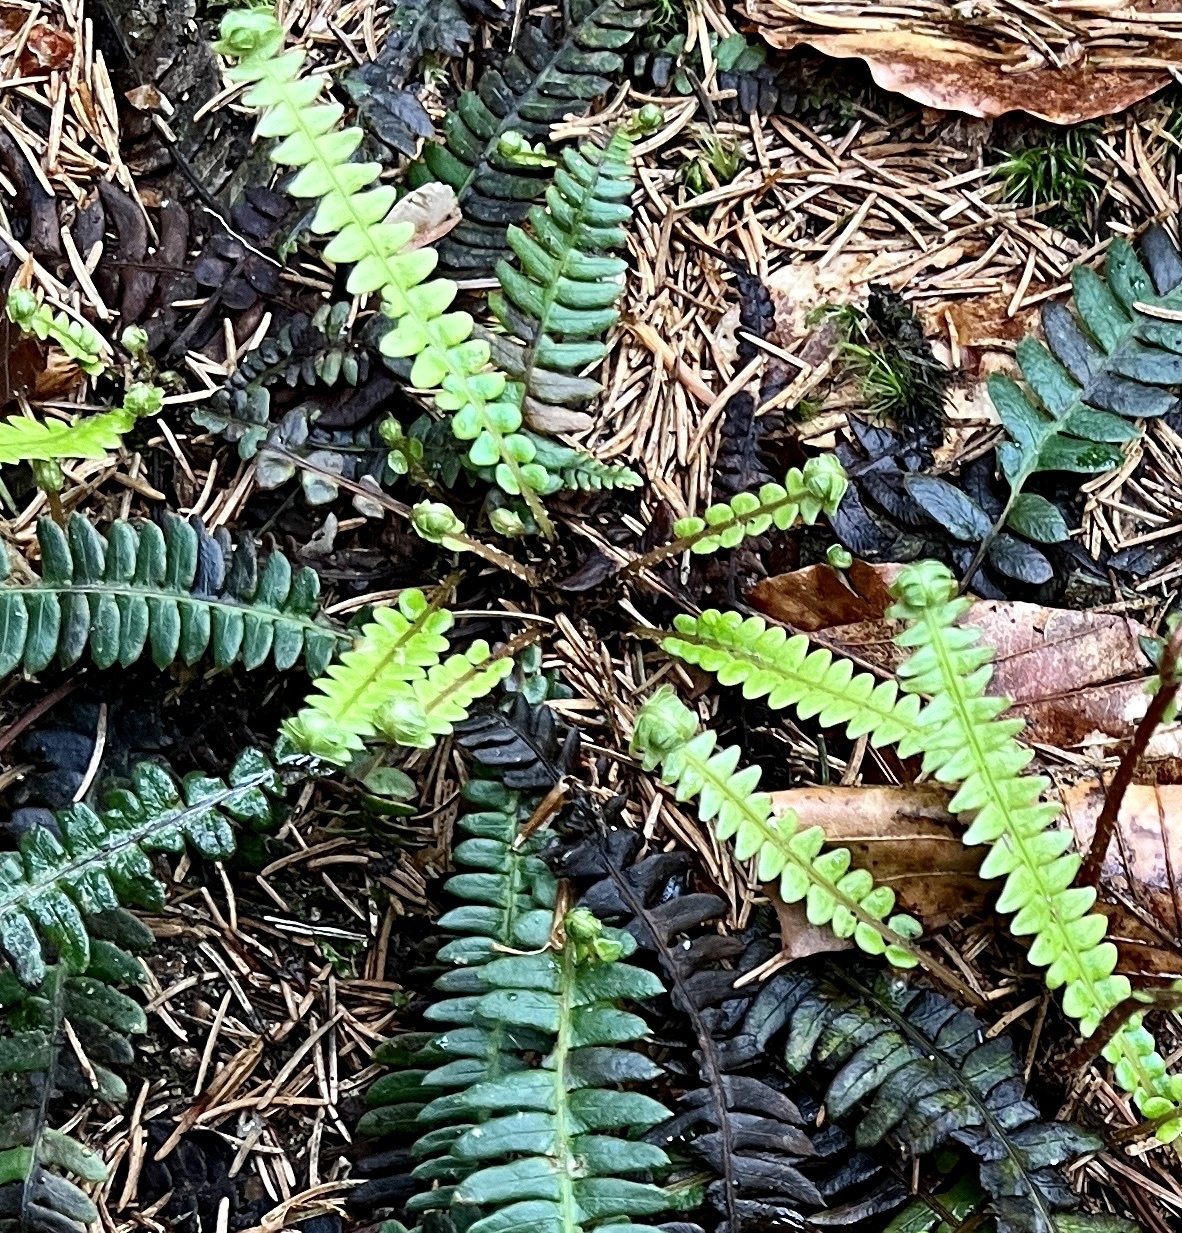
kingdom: Plantae
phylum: Tracheophyta
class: Polypodiopsida
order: Polypodiales
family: Blechnaceae
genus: Struthiopteris
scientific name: Struthiopteris spicant
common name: Deer fern
